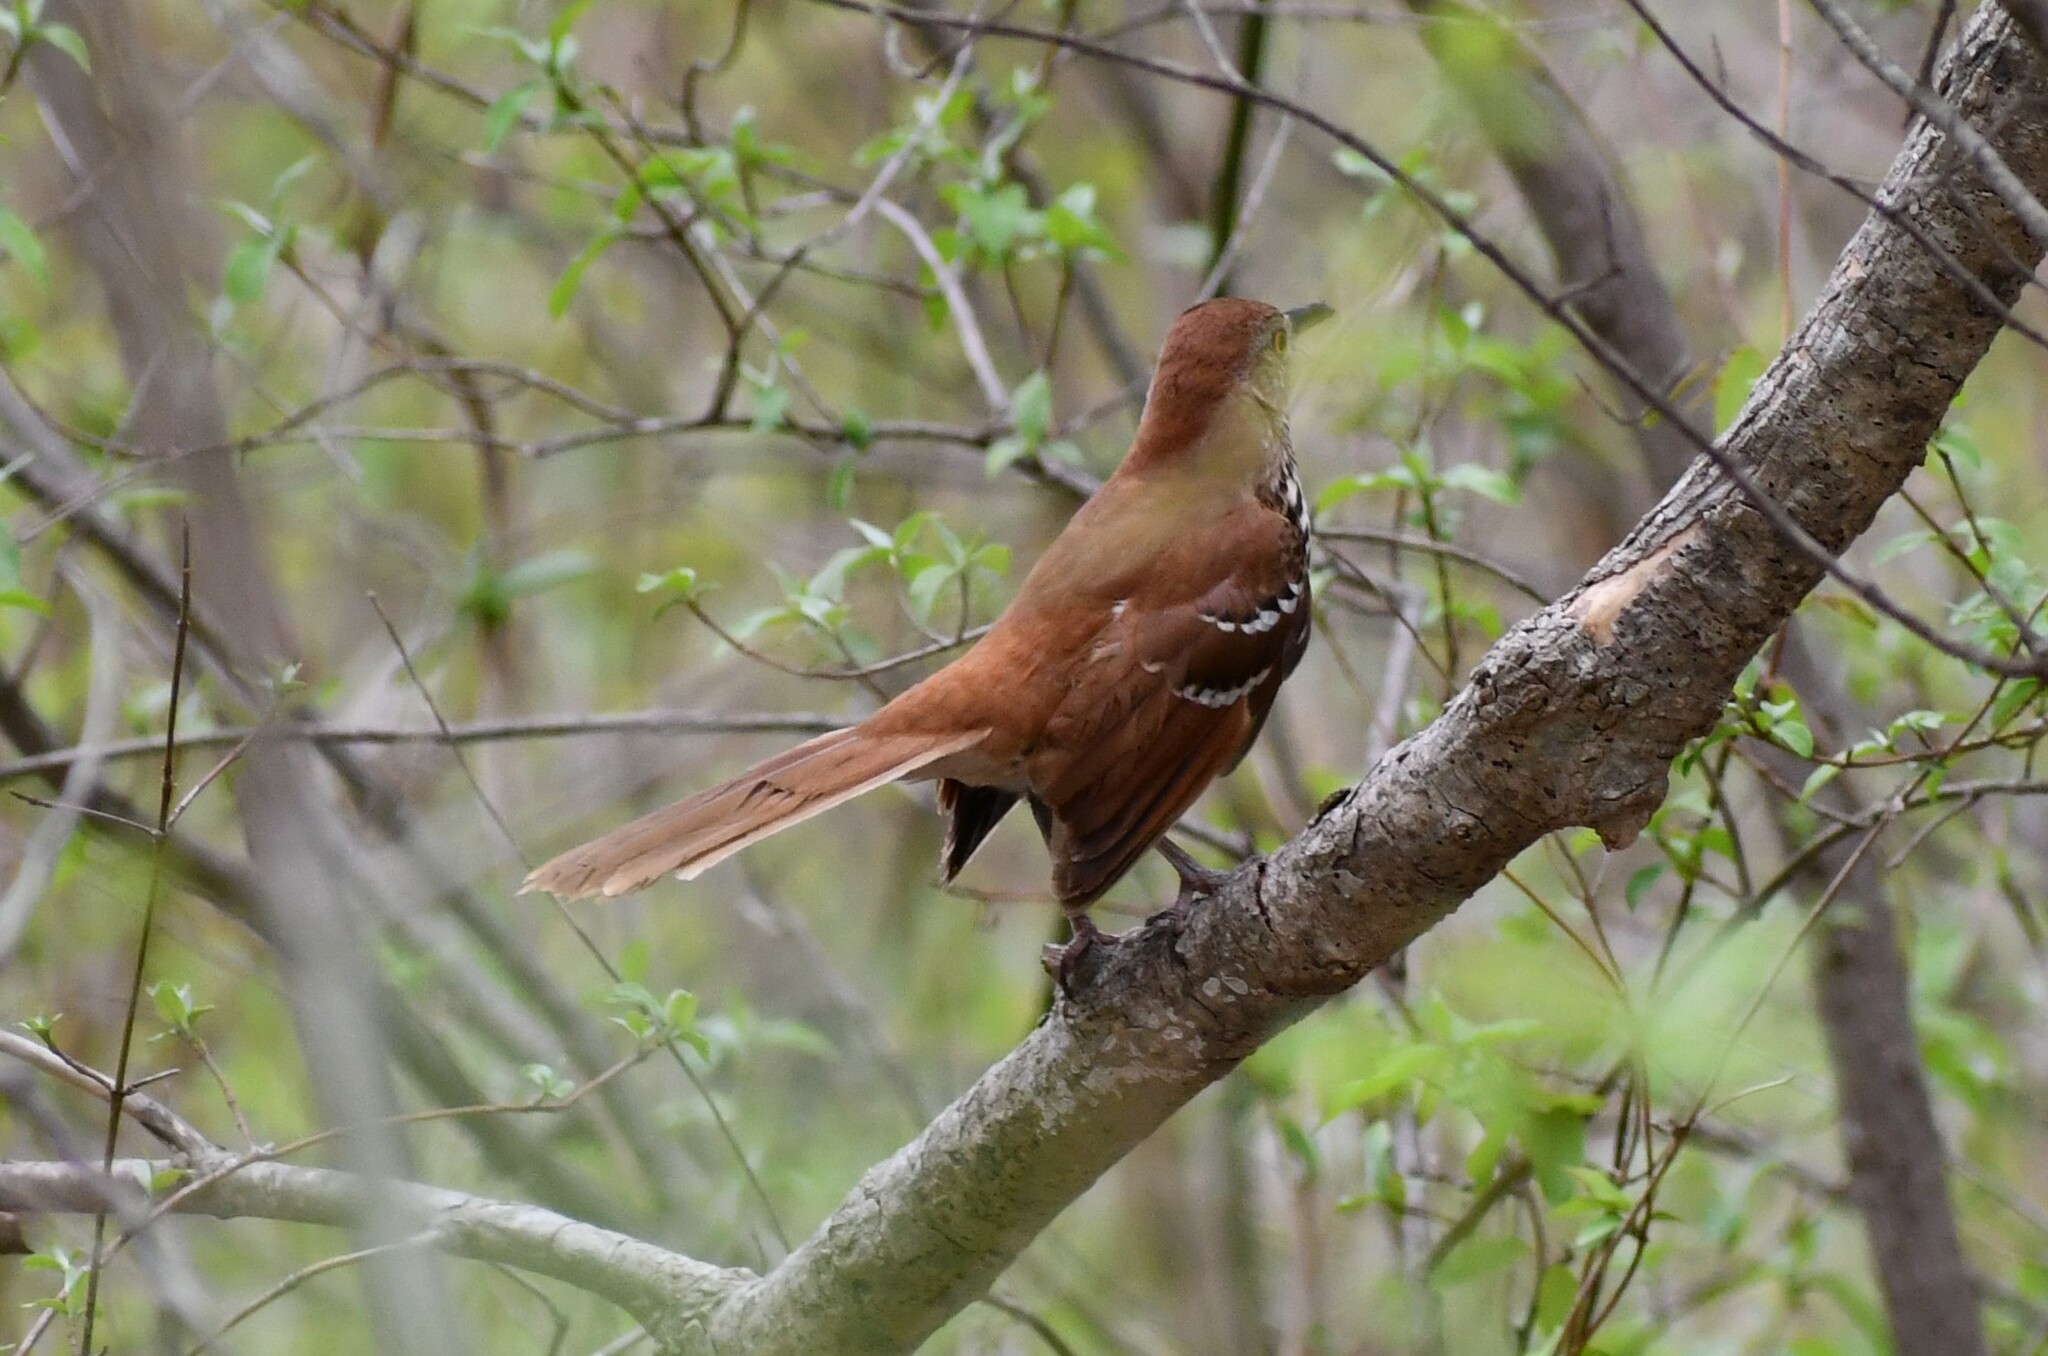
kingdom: Animalia
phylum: Chordata
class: Aves
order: Passeriformes
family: Mimidae
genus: Toxostoma
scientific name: Toxostoma rufum
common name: Brown thrasher
